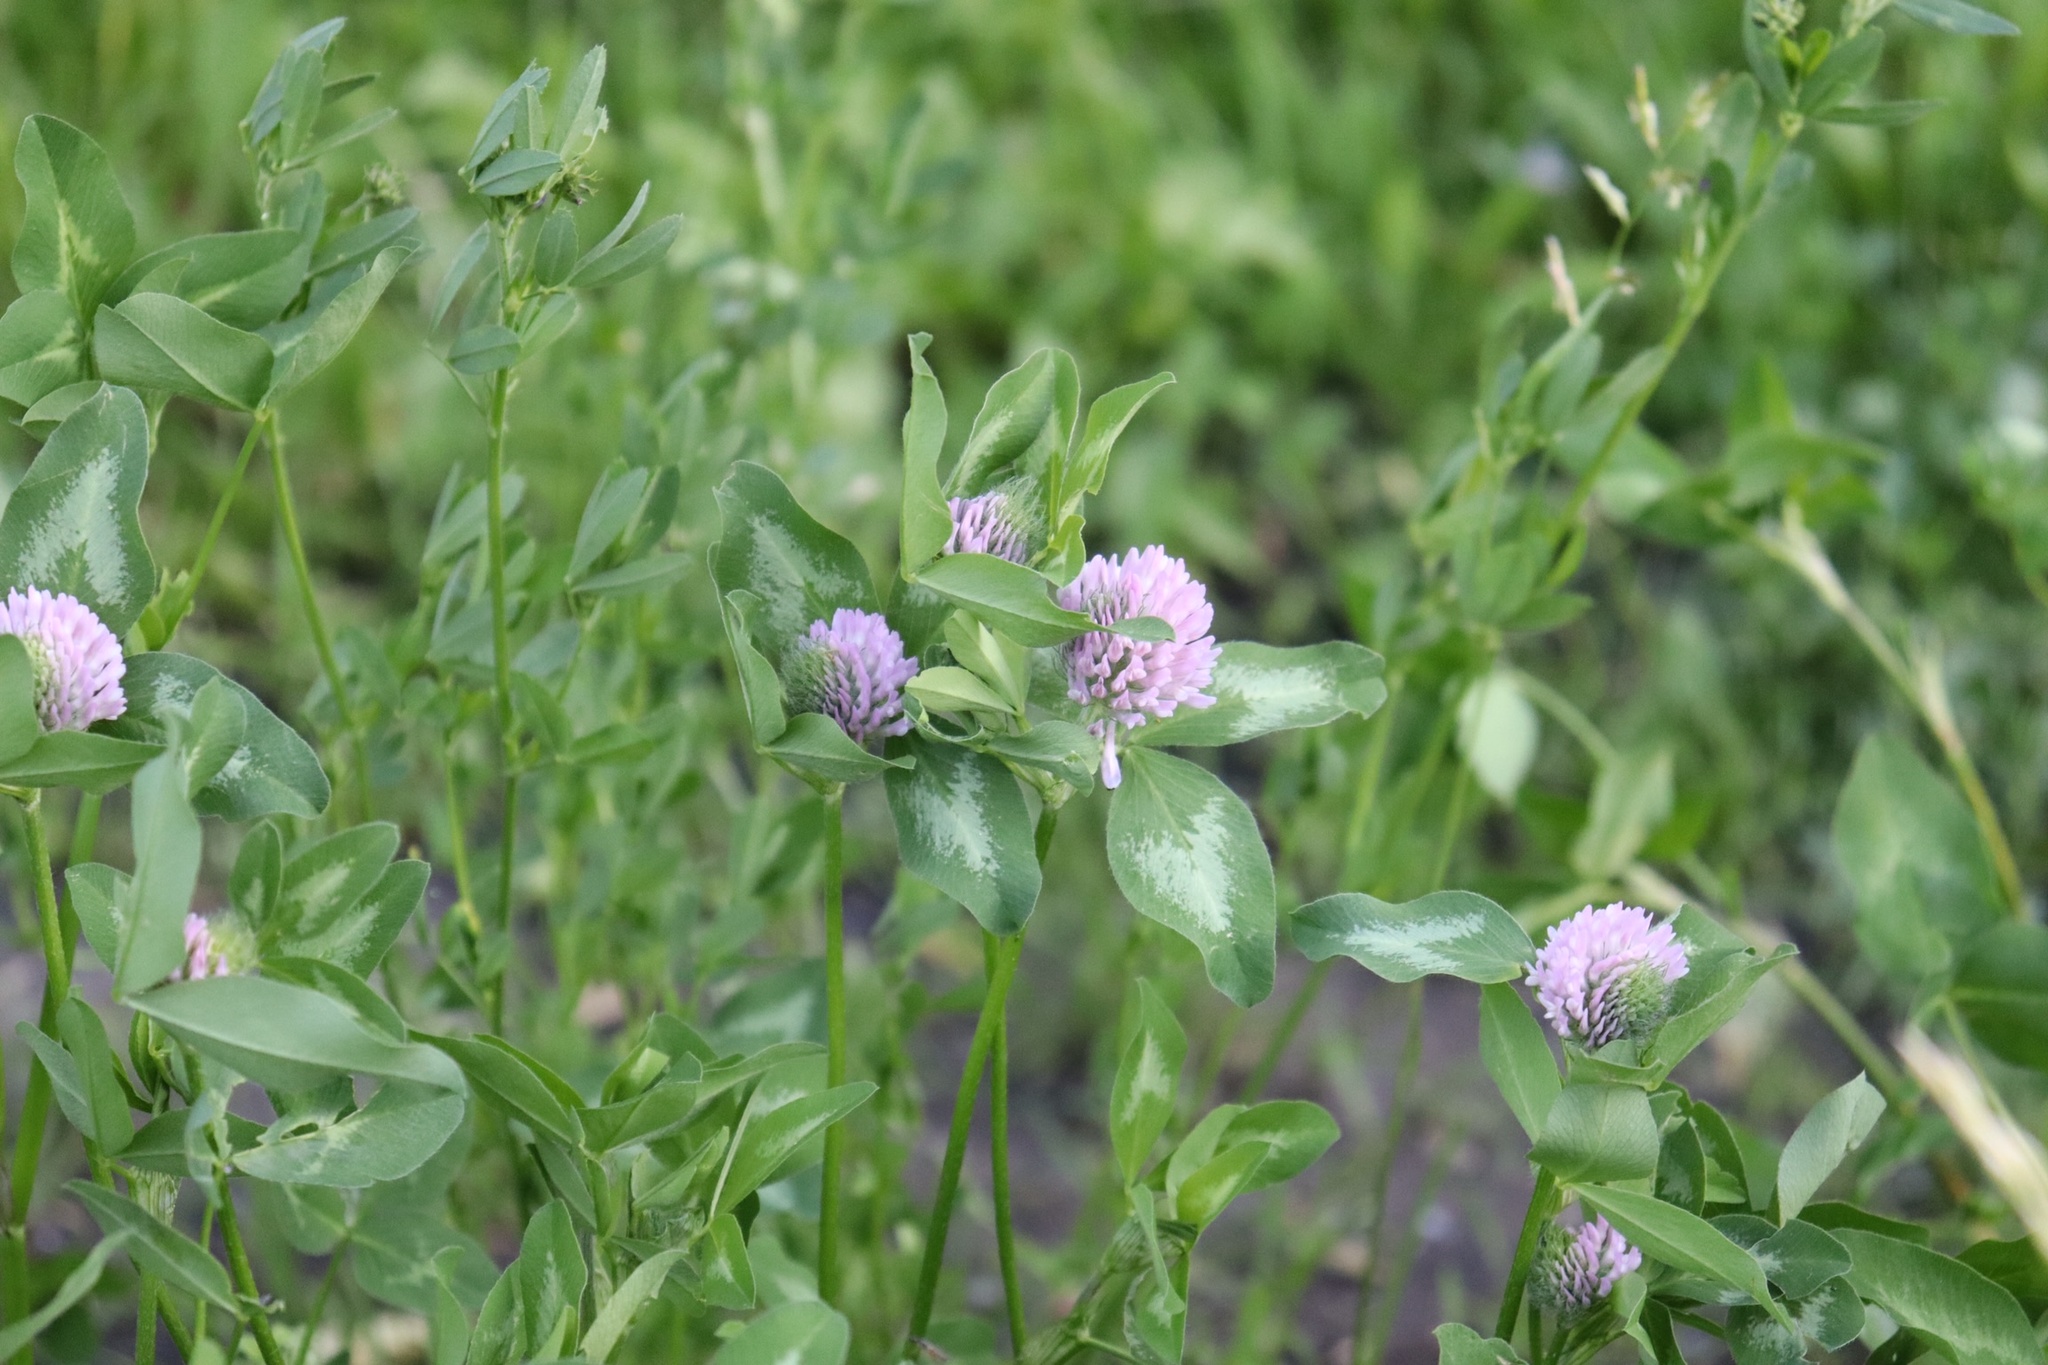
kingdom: Plantae
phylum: Tracheophyta
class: Magnoliopsida
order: Fabales
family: Fabaceae
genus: Trifolium
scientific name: Trifolium pratense
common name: Red clover
